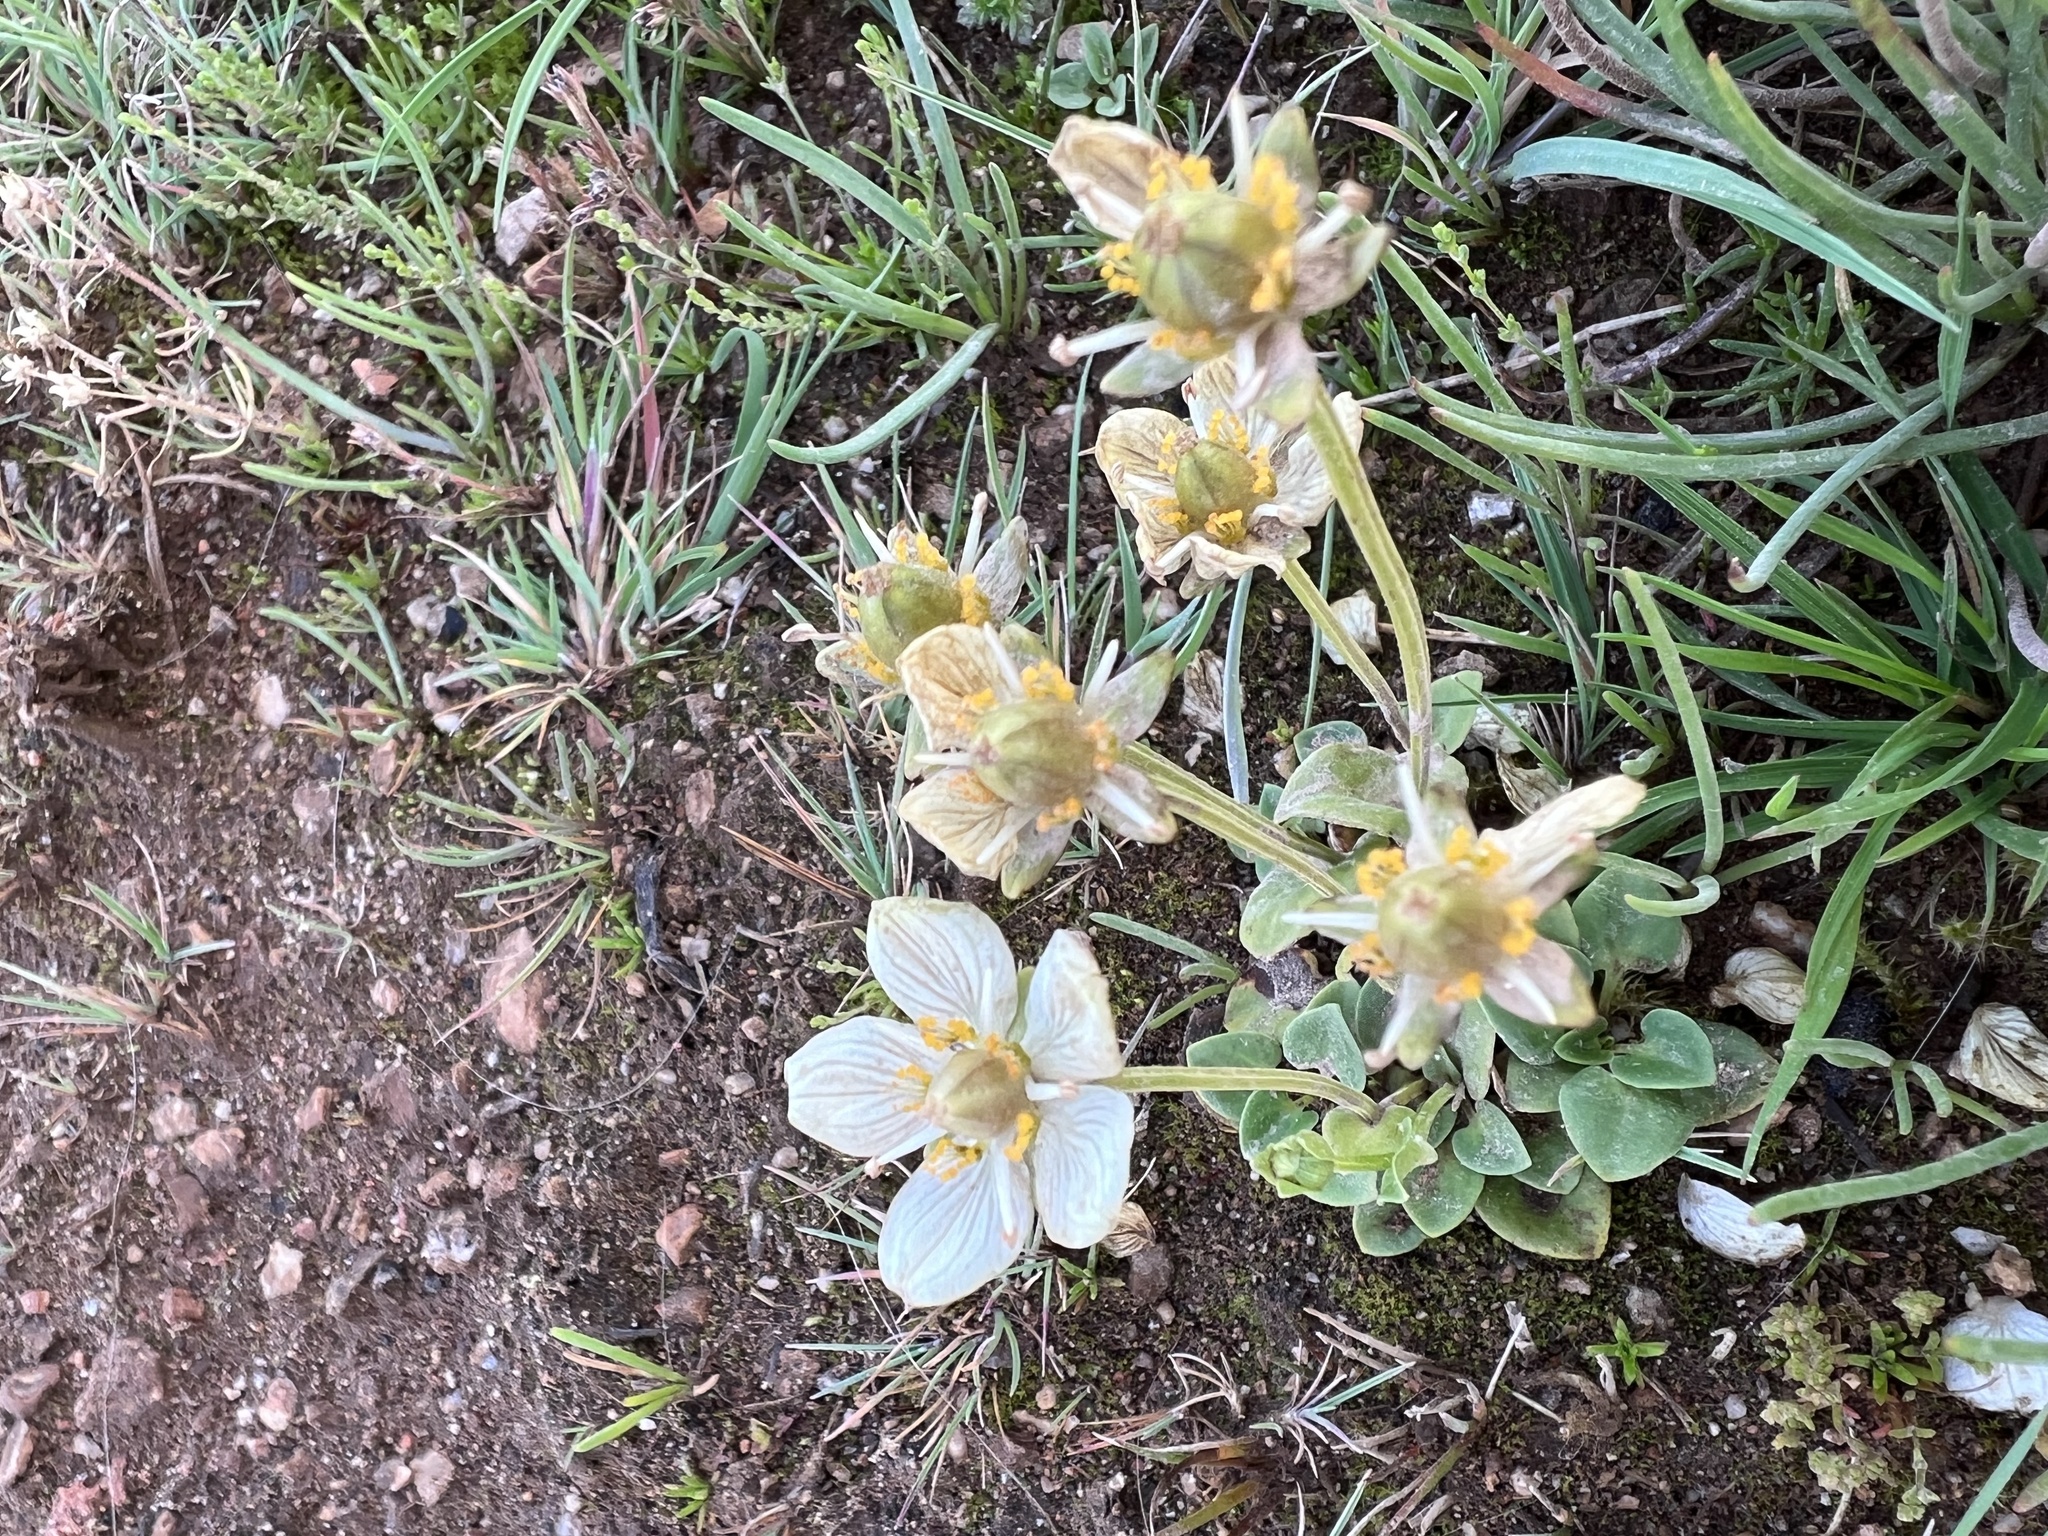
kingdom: Plantae
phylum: Tracheophyta
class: Magnoliopsida
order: Celastrales
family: Parnassiaceae
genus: Parnassia
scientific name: Parnassia palustris
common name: Grass-of-parnassus
